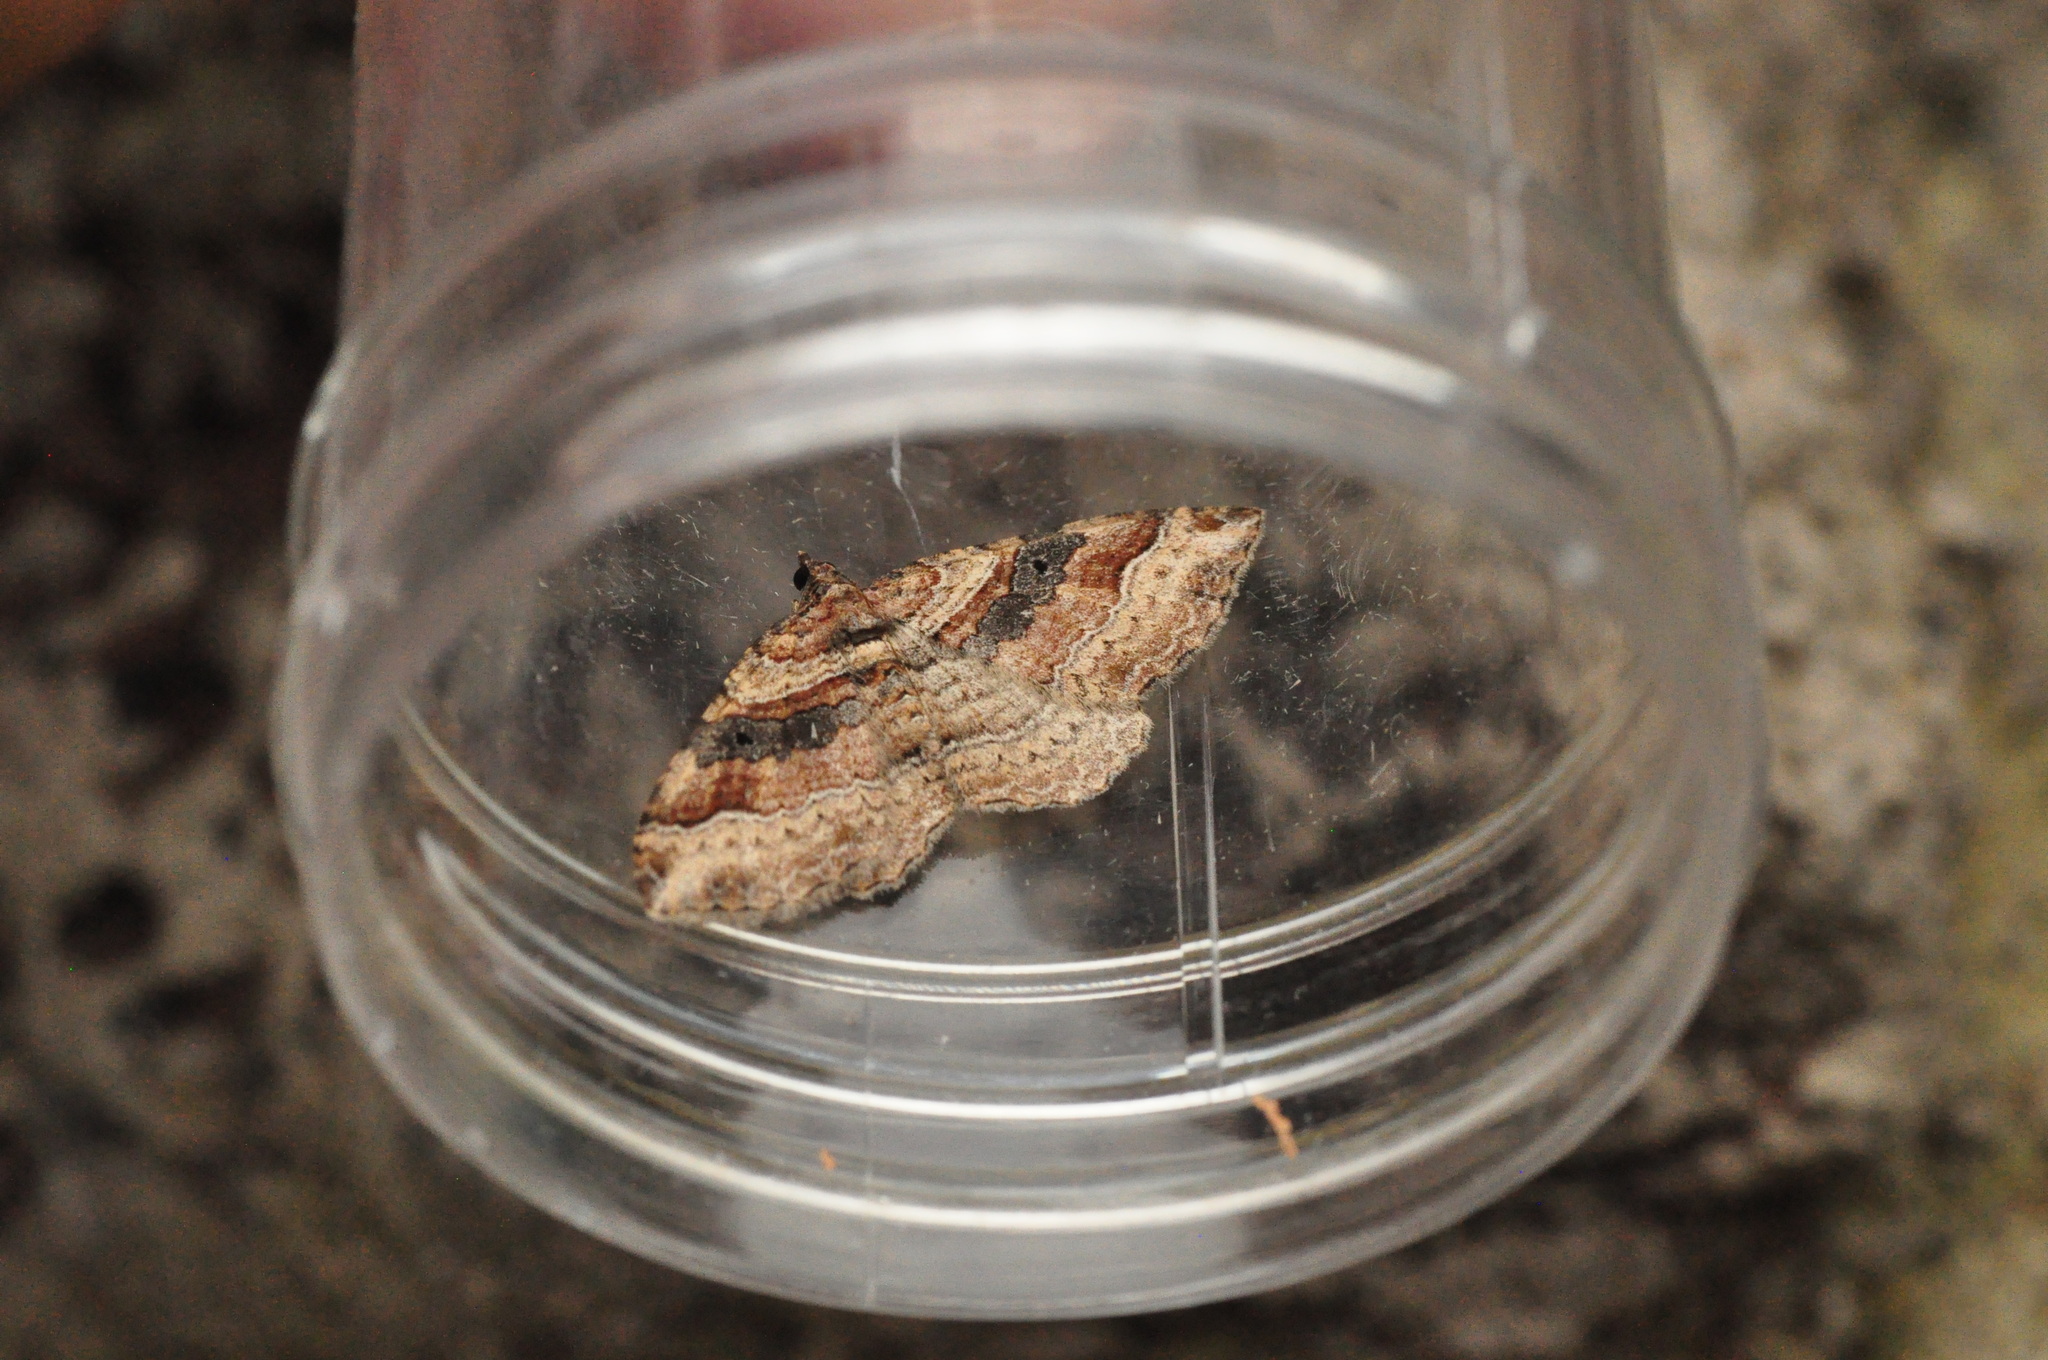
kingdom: Animalia
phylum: Arthropoda
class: Insecta
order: Lepidoptera
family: Geometridae
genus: Costaconvexa
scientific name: Costaconvexa centrostrigaria
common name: Bent-line carpet
